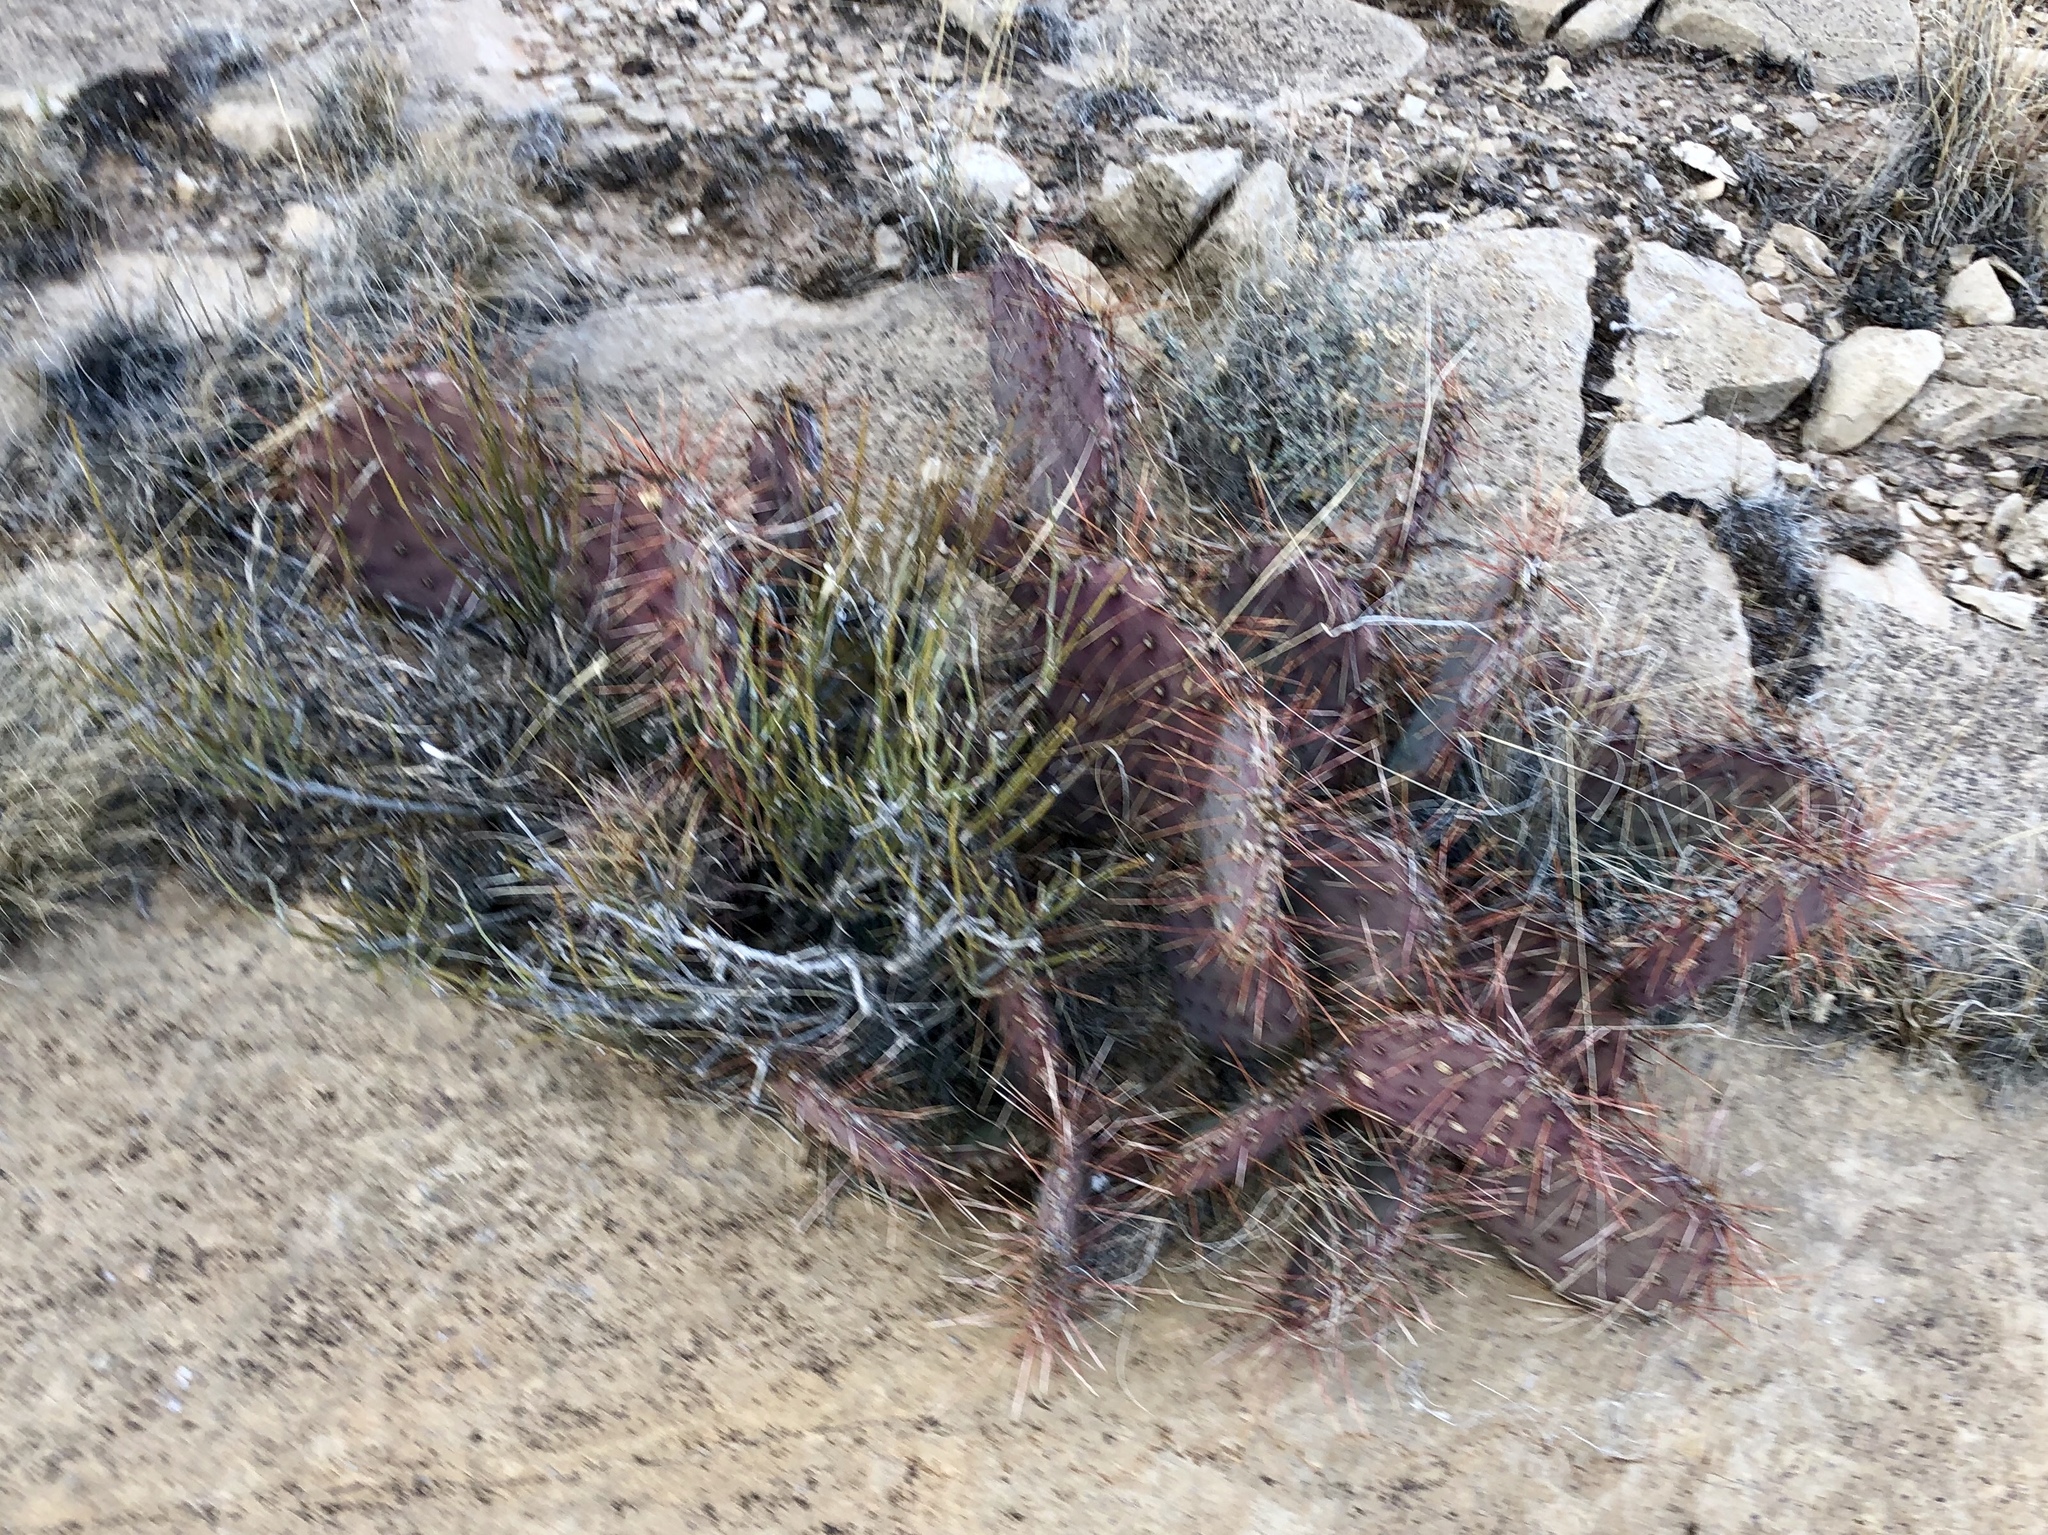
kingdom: Plantae
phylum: Tracheophyta
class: Magnoliopsida
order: Caryophyllales
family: Cactaceae
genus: Opuntia
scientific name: Opuntia macrocentra
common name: Purple prickly-pear
